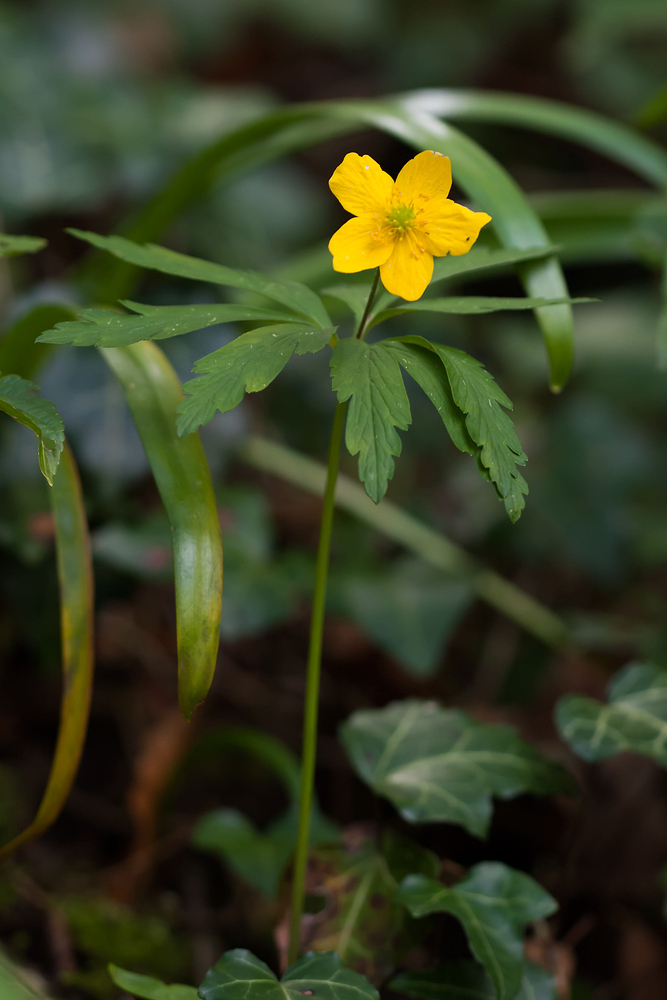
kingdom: Plantae
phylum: Tracheophyta
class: Magnoliopsida
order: Ranunculales
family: Ranunculaceae
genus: Anemone
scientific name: Anemone ranunculoides
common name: Yellow anemone
